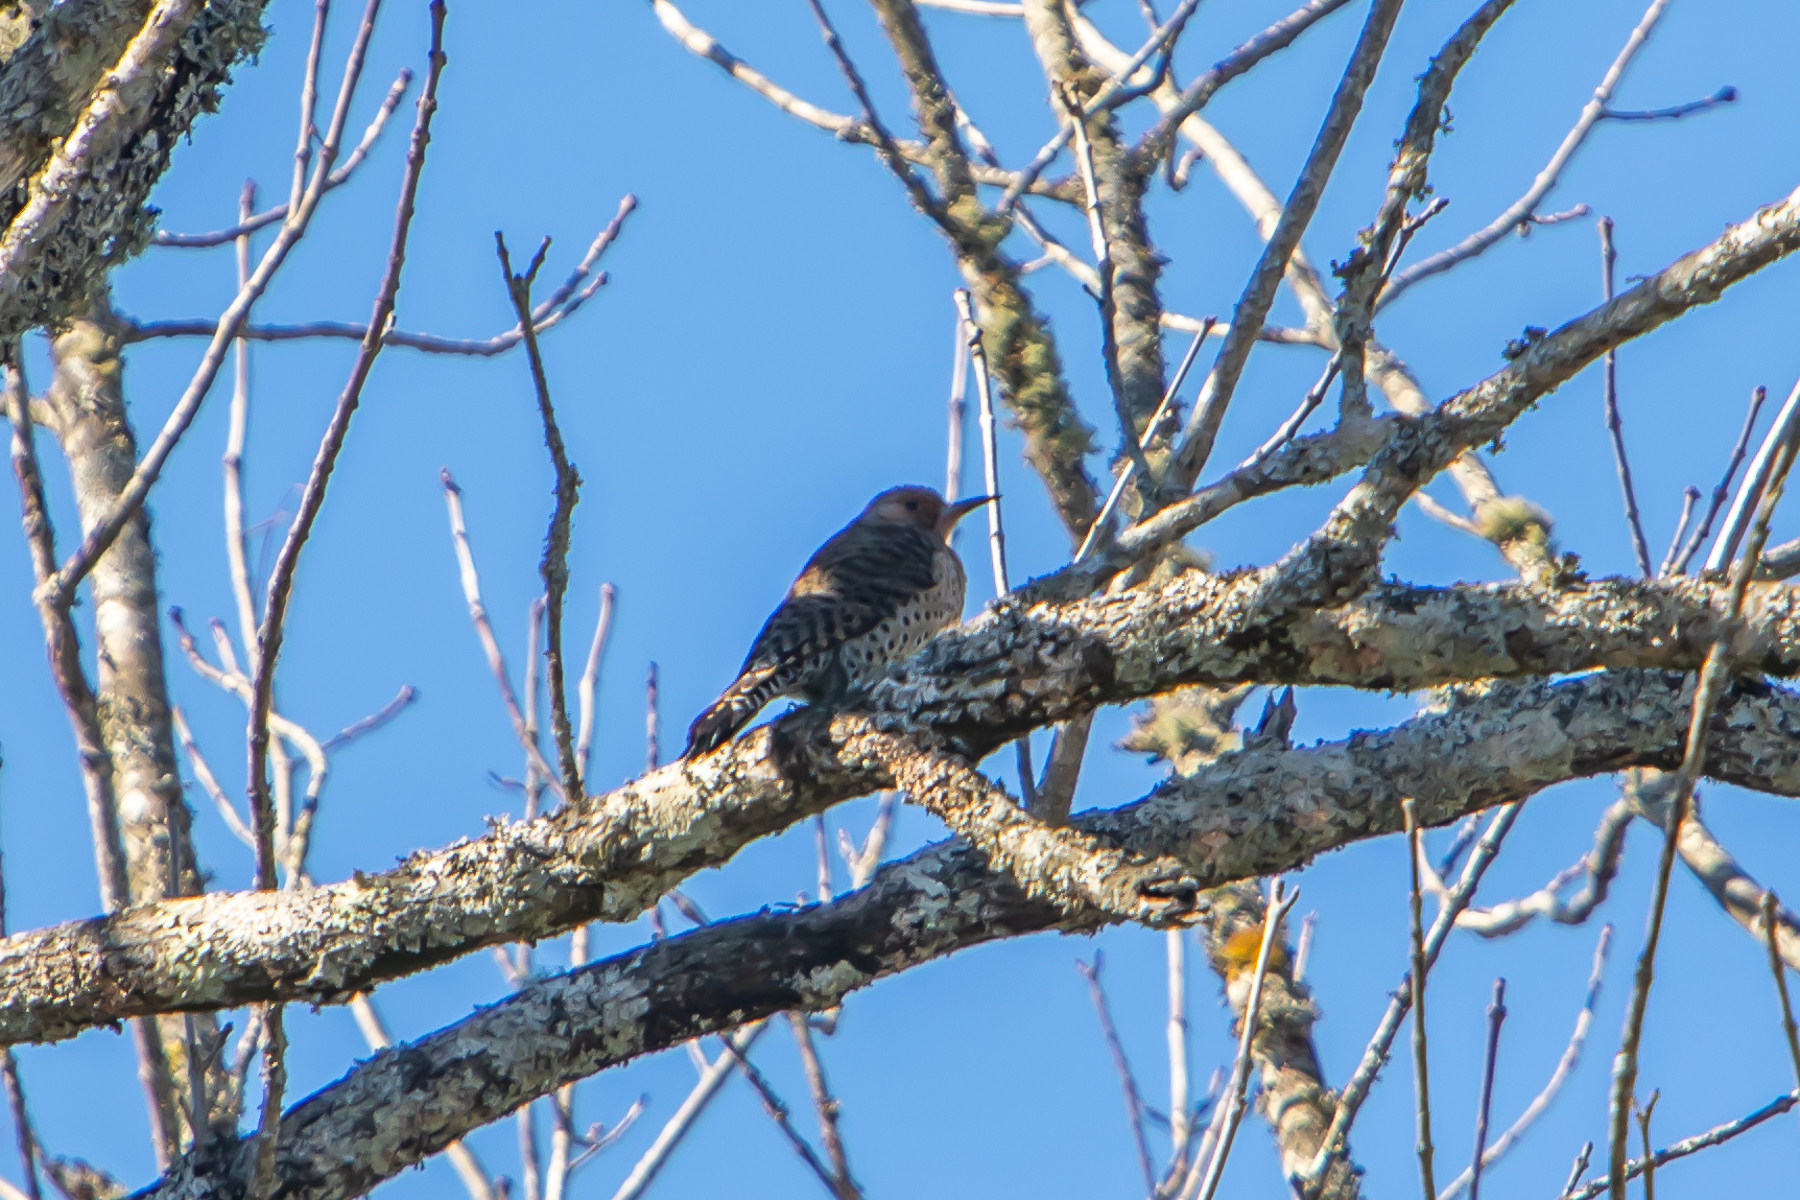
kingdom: Animalia
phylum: Chordata
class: Aves
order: Piciformes
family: Picidae
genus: Colaptes
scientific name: Colaptes auratus
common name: Northern flicker
